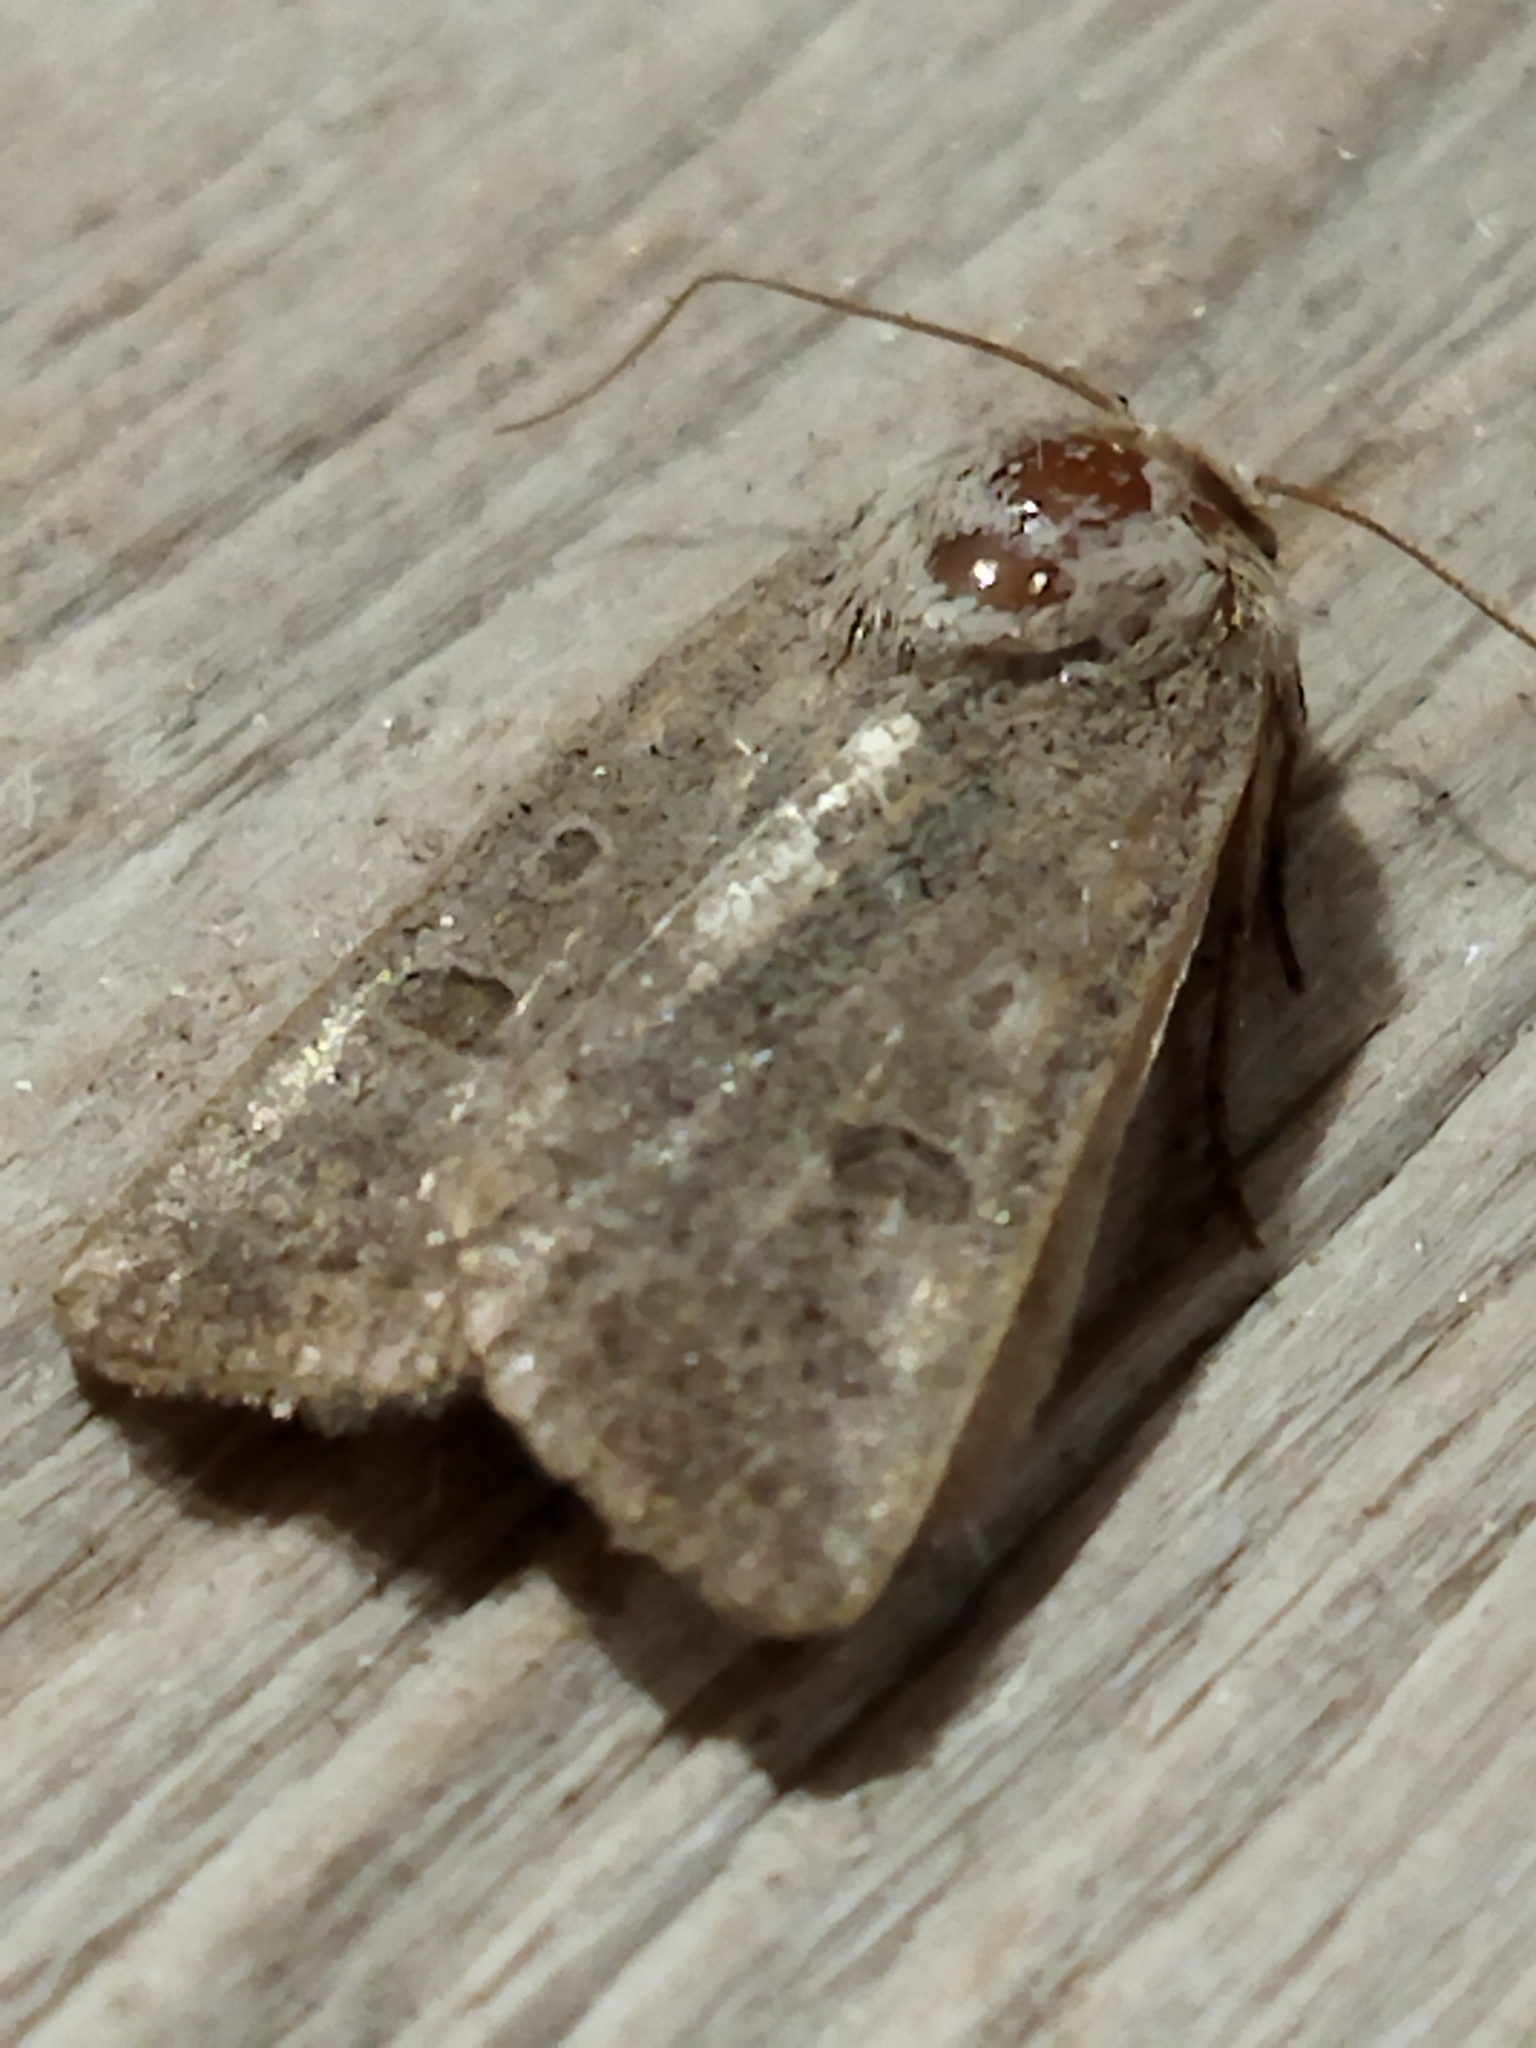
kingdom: Animalia
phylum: Arthropoda
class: Insecta
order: Lepidoptera
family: Noctuidae
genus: Hoplodrina
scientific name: Hoplodrina ambigua
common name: Vine's rustic
